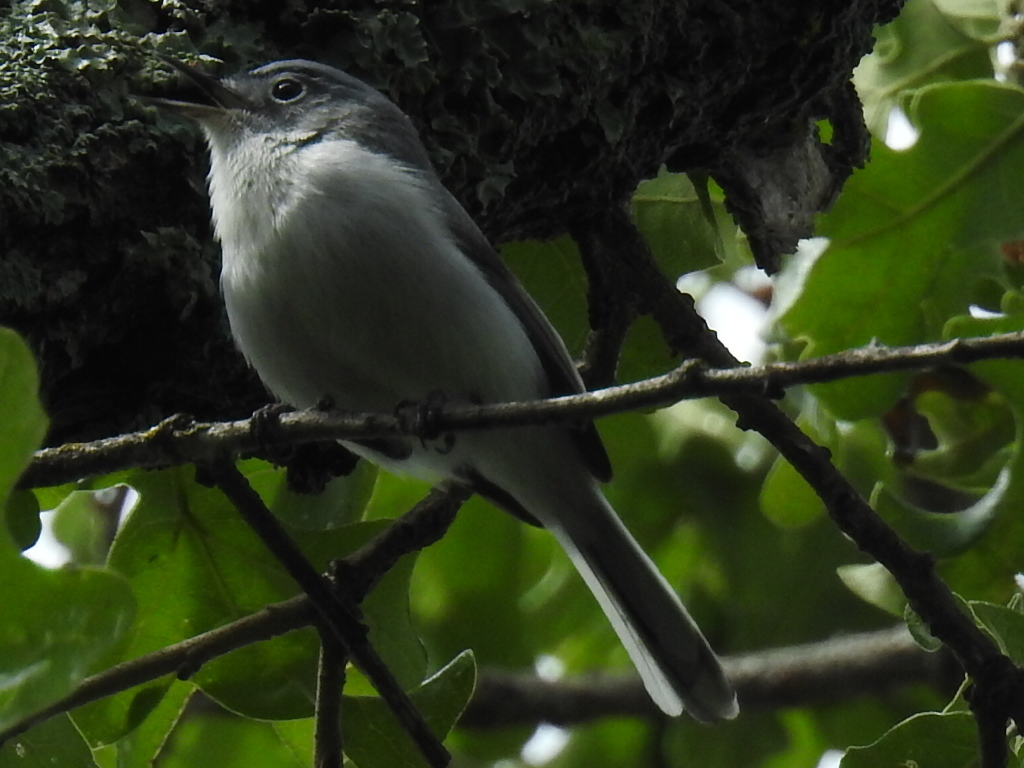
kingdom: Animalia
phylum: Chordata
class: Aves
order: Passeriformes
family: Polioptilidae
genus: Polioptila
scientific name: Polioptila caerulea
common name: Blue-gray gnatcatcher
